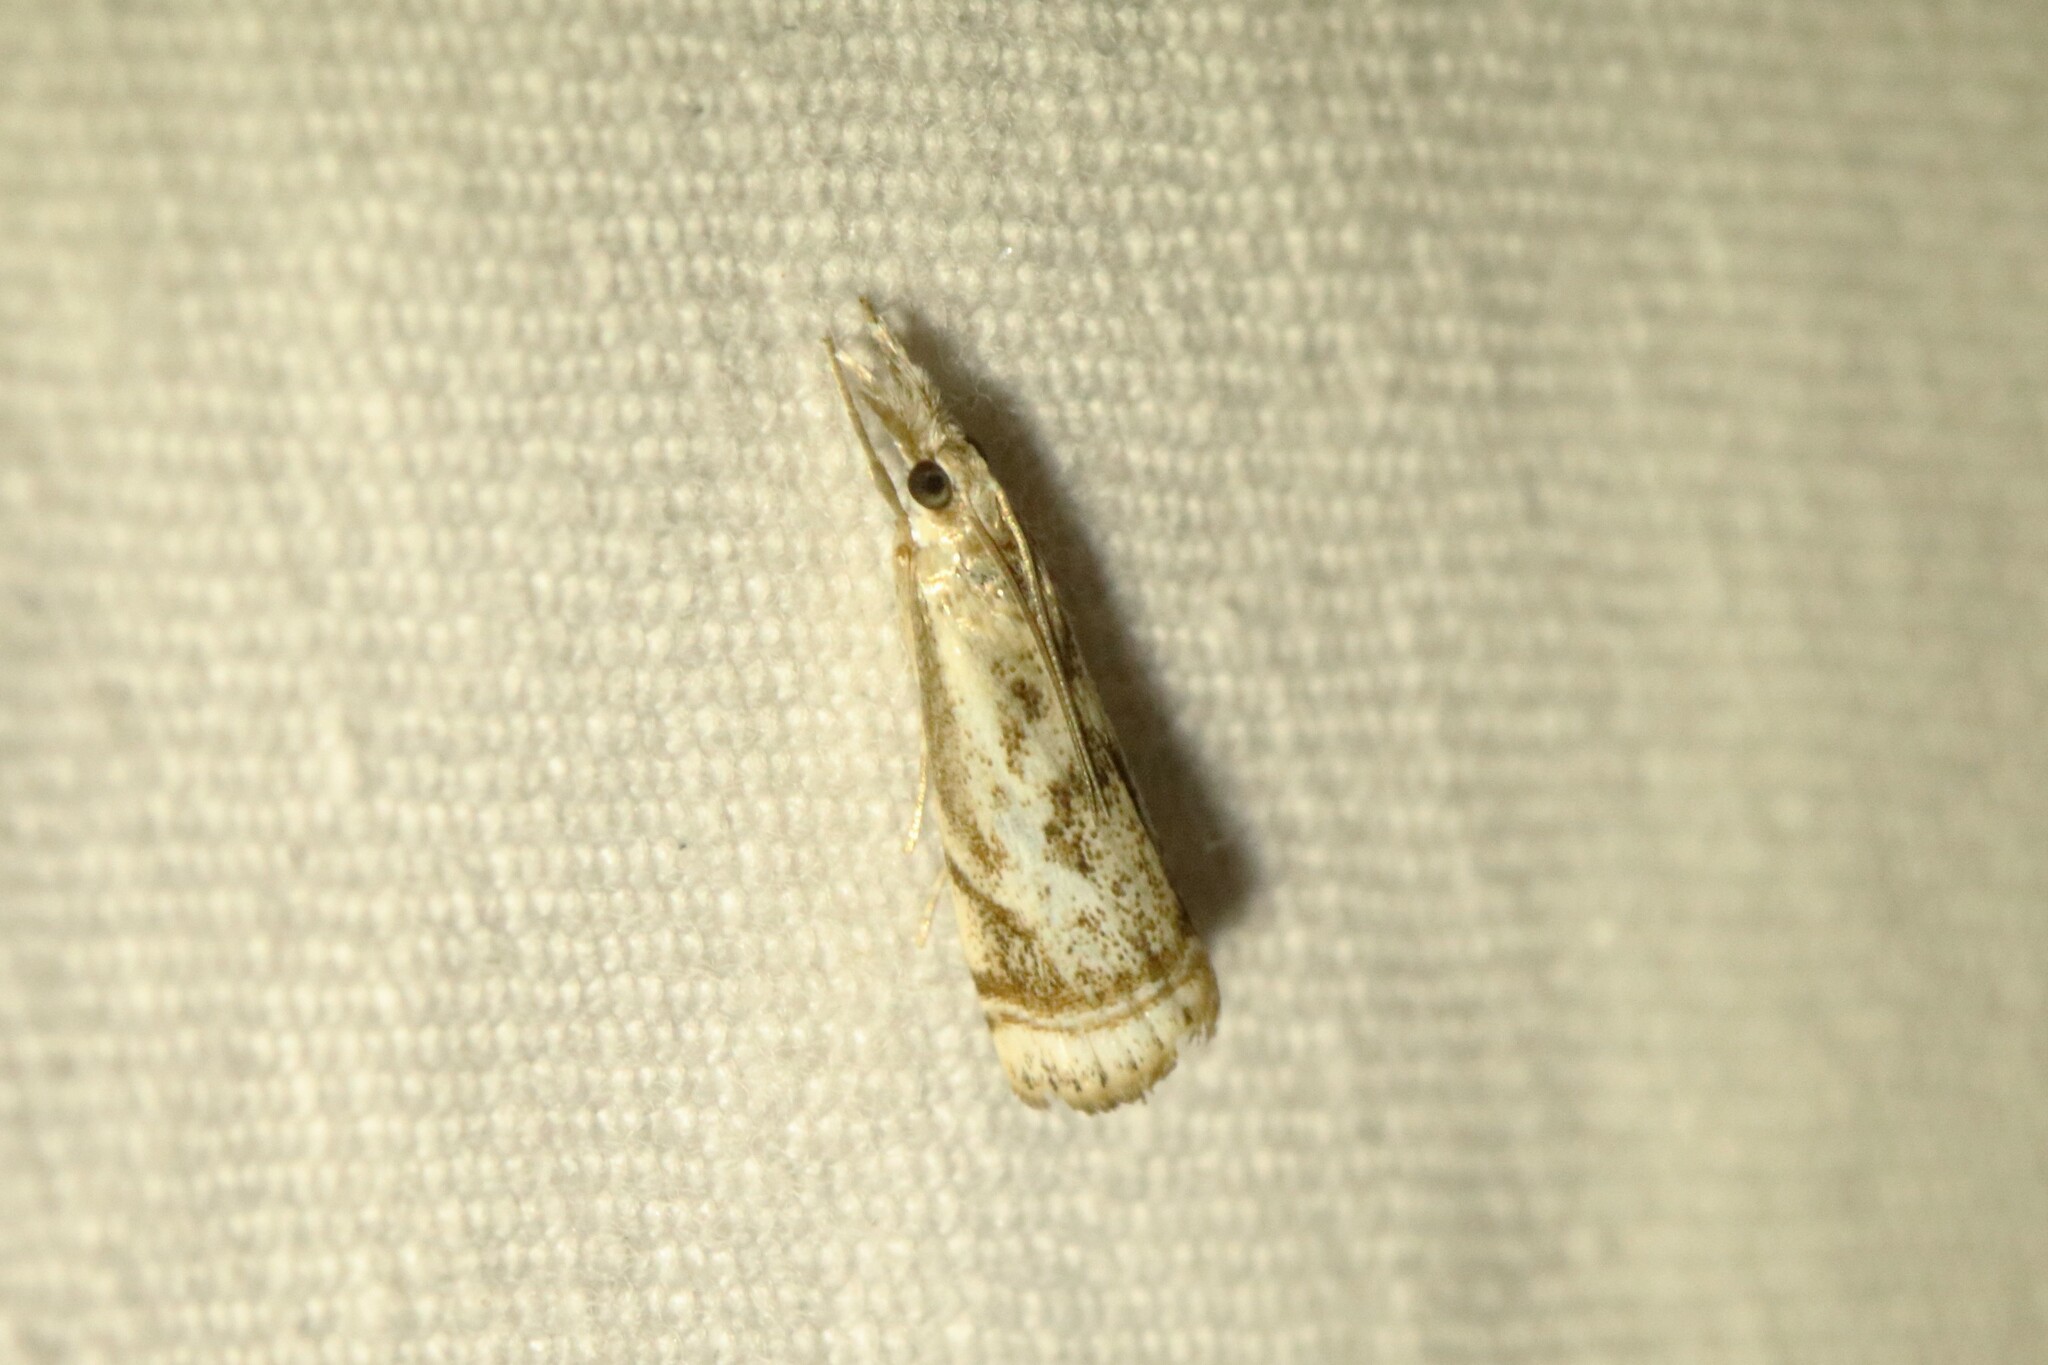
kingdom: Animalia
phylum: Arthropoda
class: Insecta
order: Lepidoptera
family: Crambidae
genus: Microcrambus
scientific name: Microcrambus elegans
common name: Elegant grass-veneer
